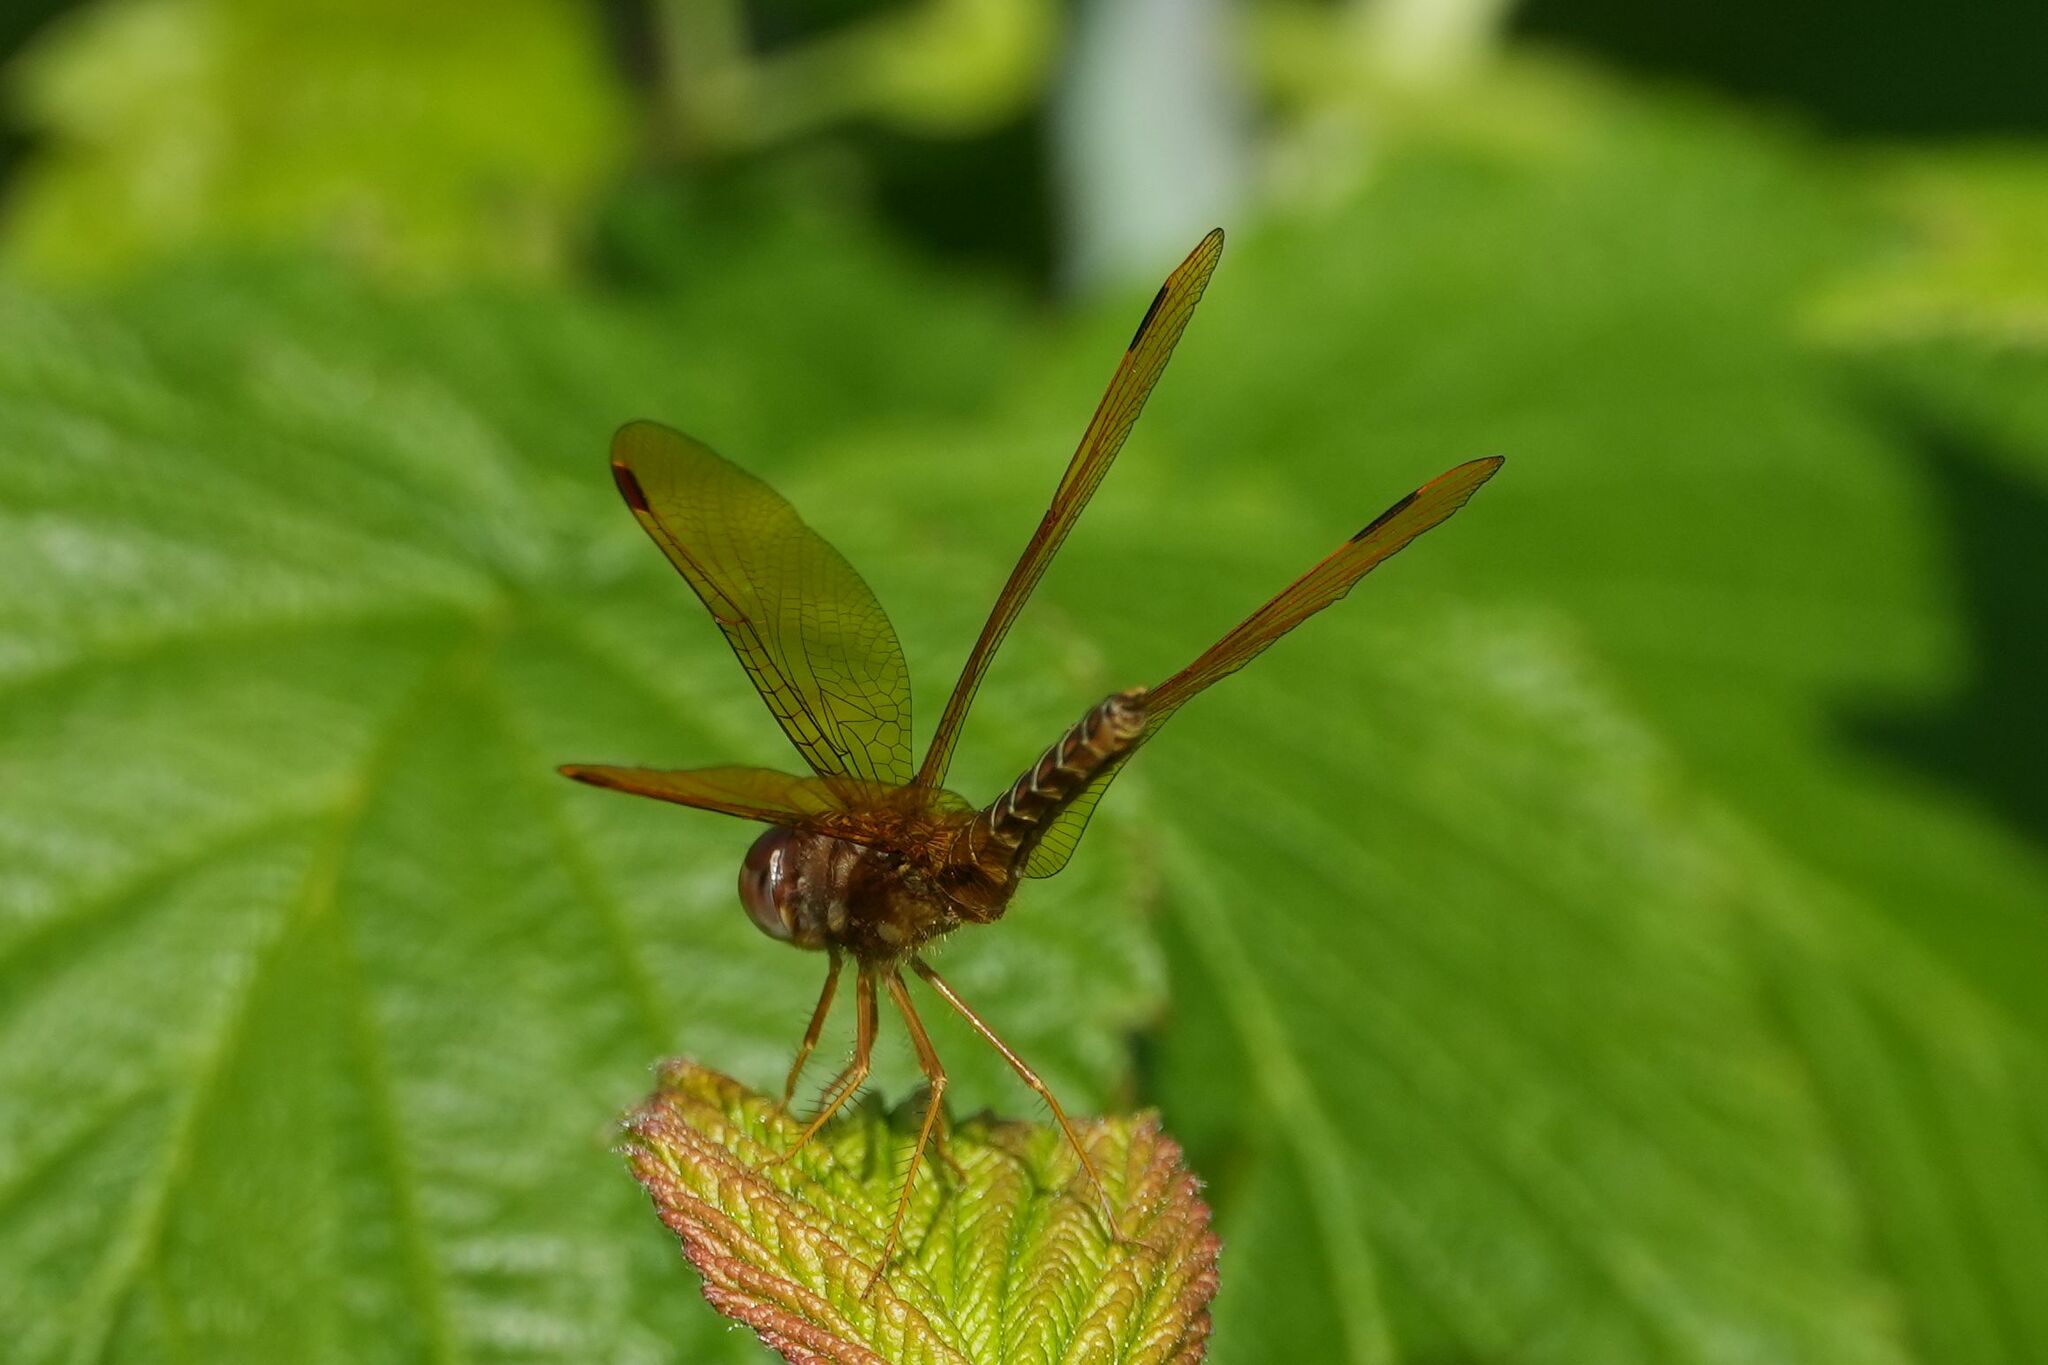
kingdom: Animalia
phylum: Arthropoda
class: Insecta
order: Odonata
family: Libellulidae
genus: Perithemis
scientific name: Perithemis tenera
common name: Eastern amberwing
